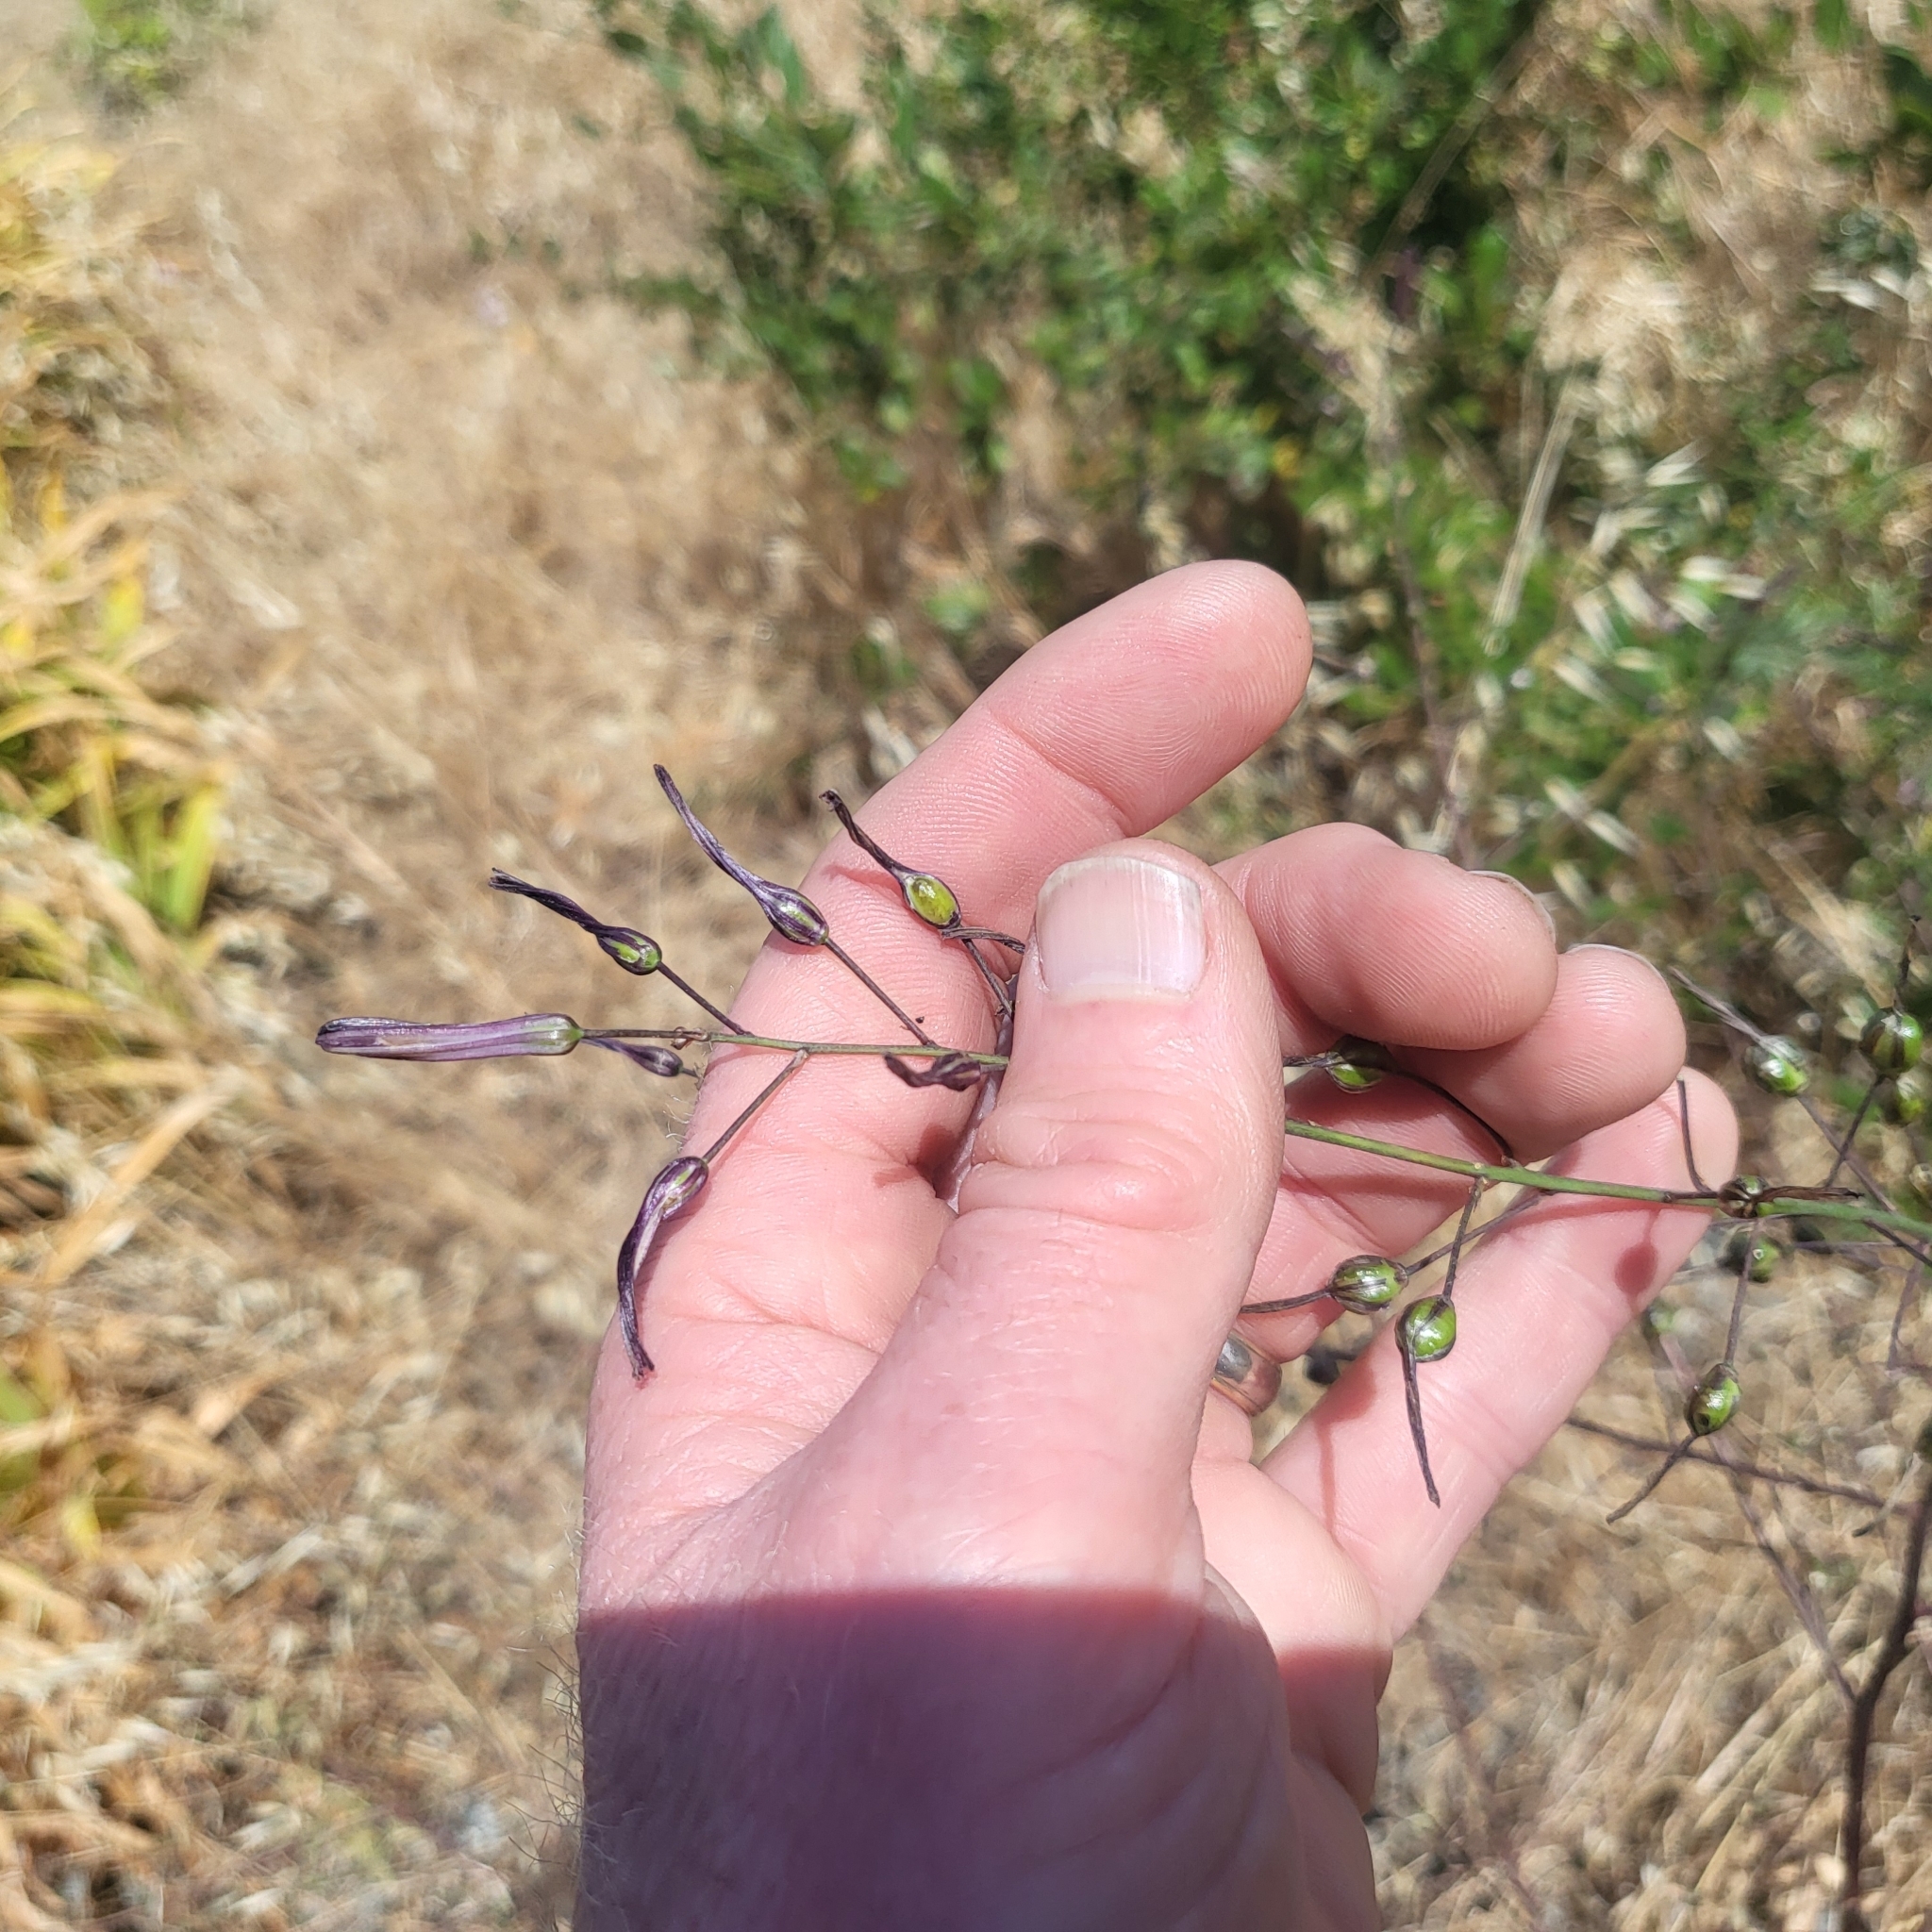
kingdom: Plantae
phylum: Tracheophyta
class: Liliopsida
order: Asparagales
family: Asparagaceae
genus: Chlorogalum
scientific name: Chlorogalum pomeridianum
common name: Amole
